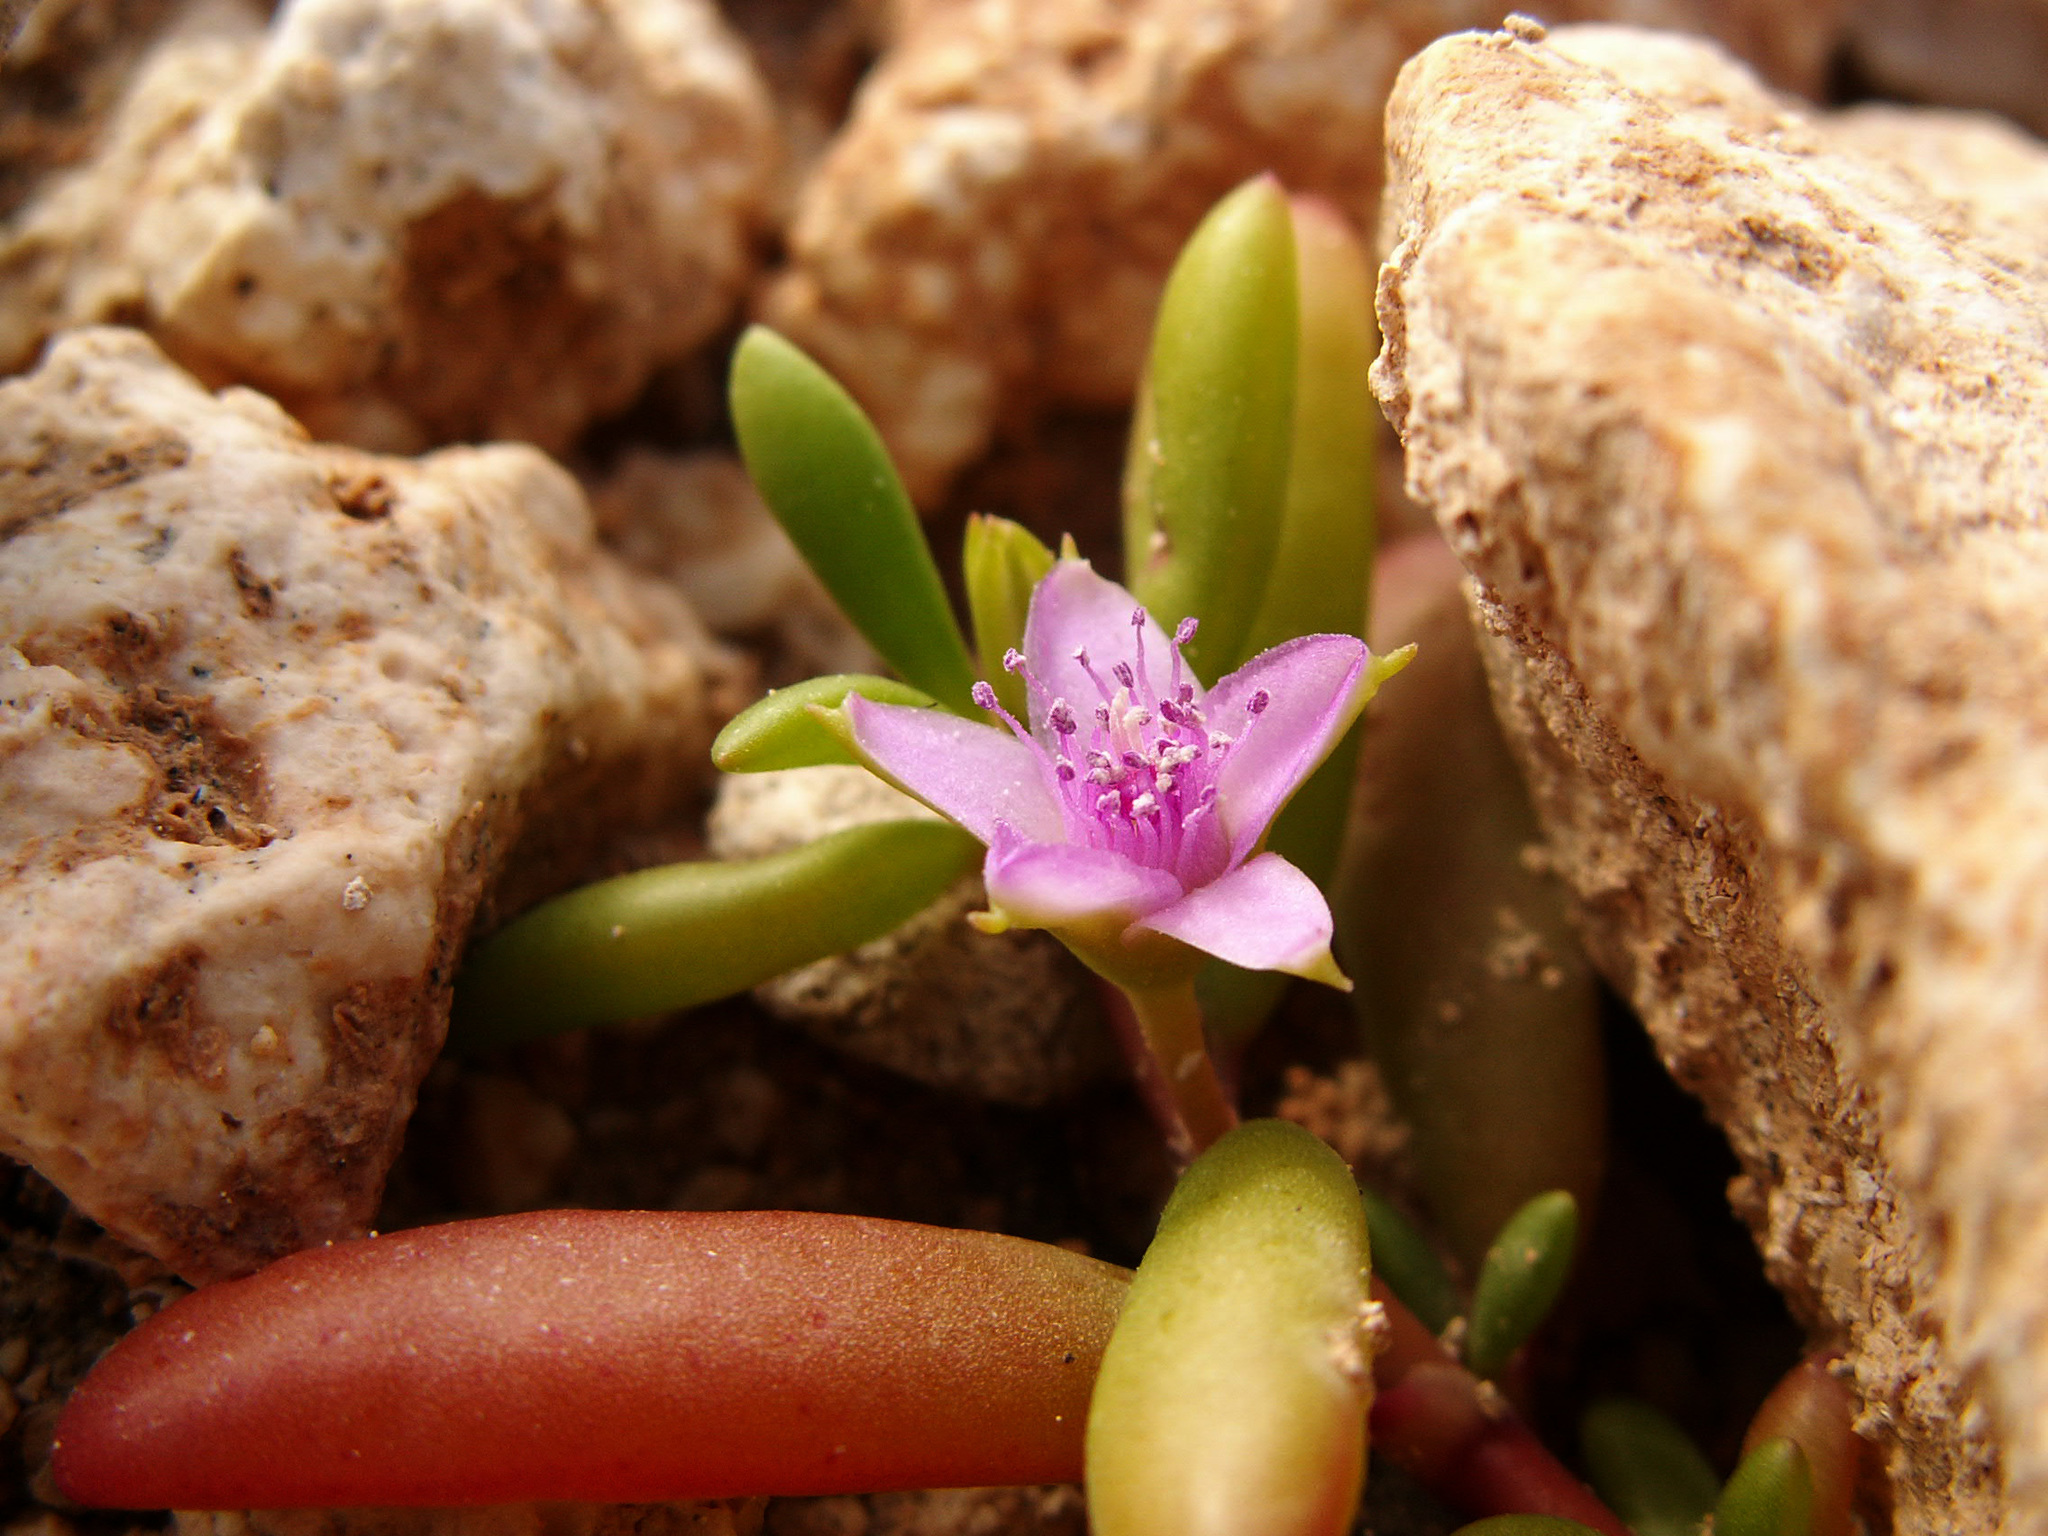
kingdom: Plantae
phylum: Tracheophyta
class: Magnoliopsida
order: Caryophyllales
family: Aizoaceae
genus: Sesuvium
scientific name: Sesuvium portulacastrum
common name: Sea-purslane
